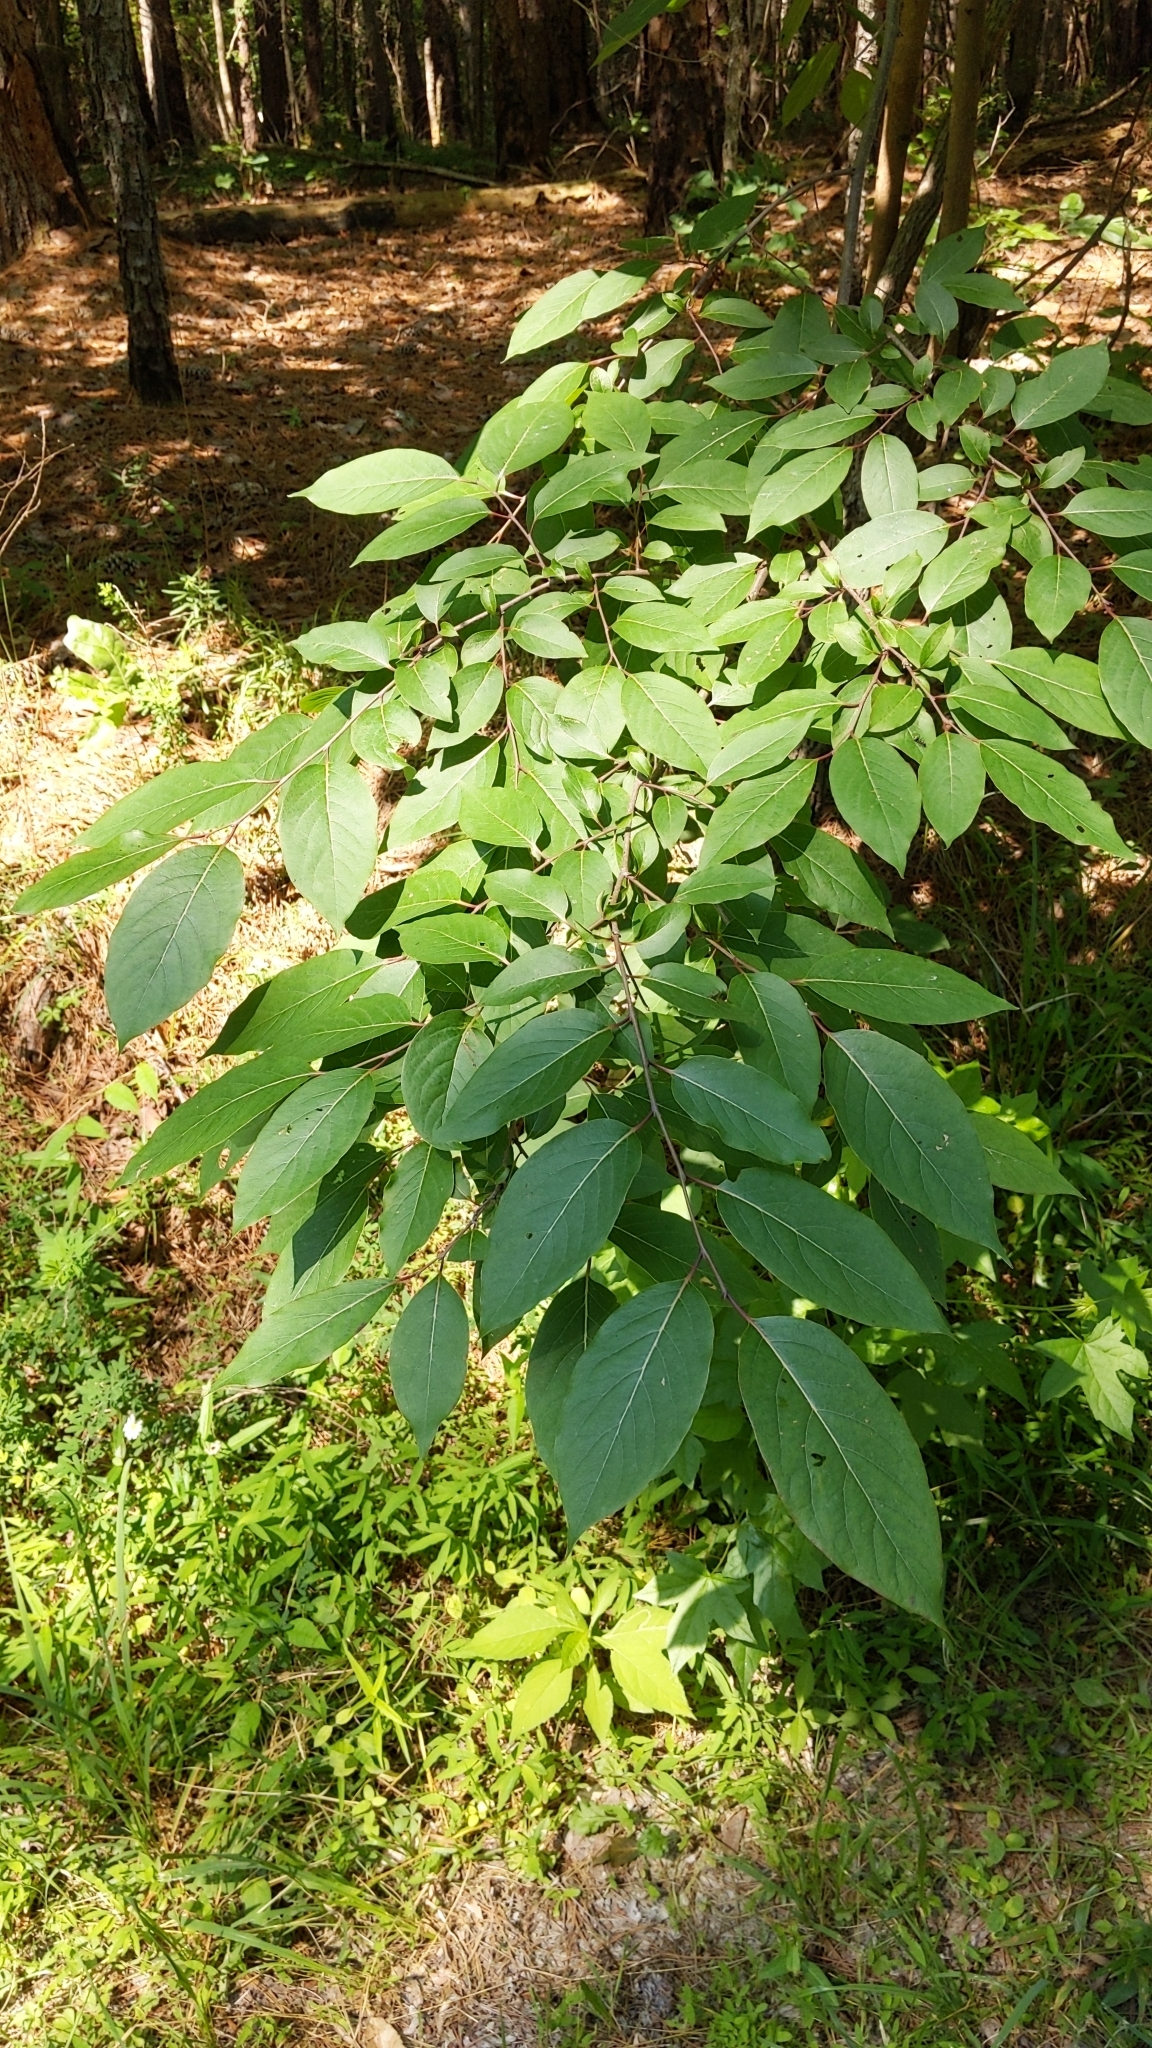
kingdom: Plantae
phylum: Tracheophyta
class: Magnoliopsida
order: Ericales
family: Ebenaceae
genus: Diospyros
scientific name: Diospyros virginiana
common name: Persimmon
